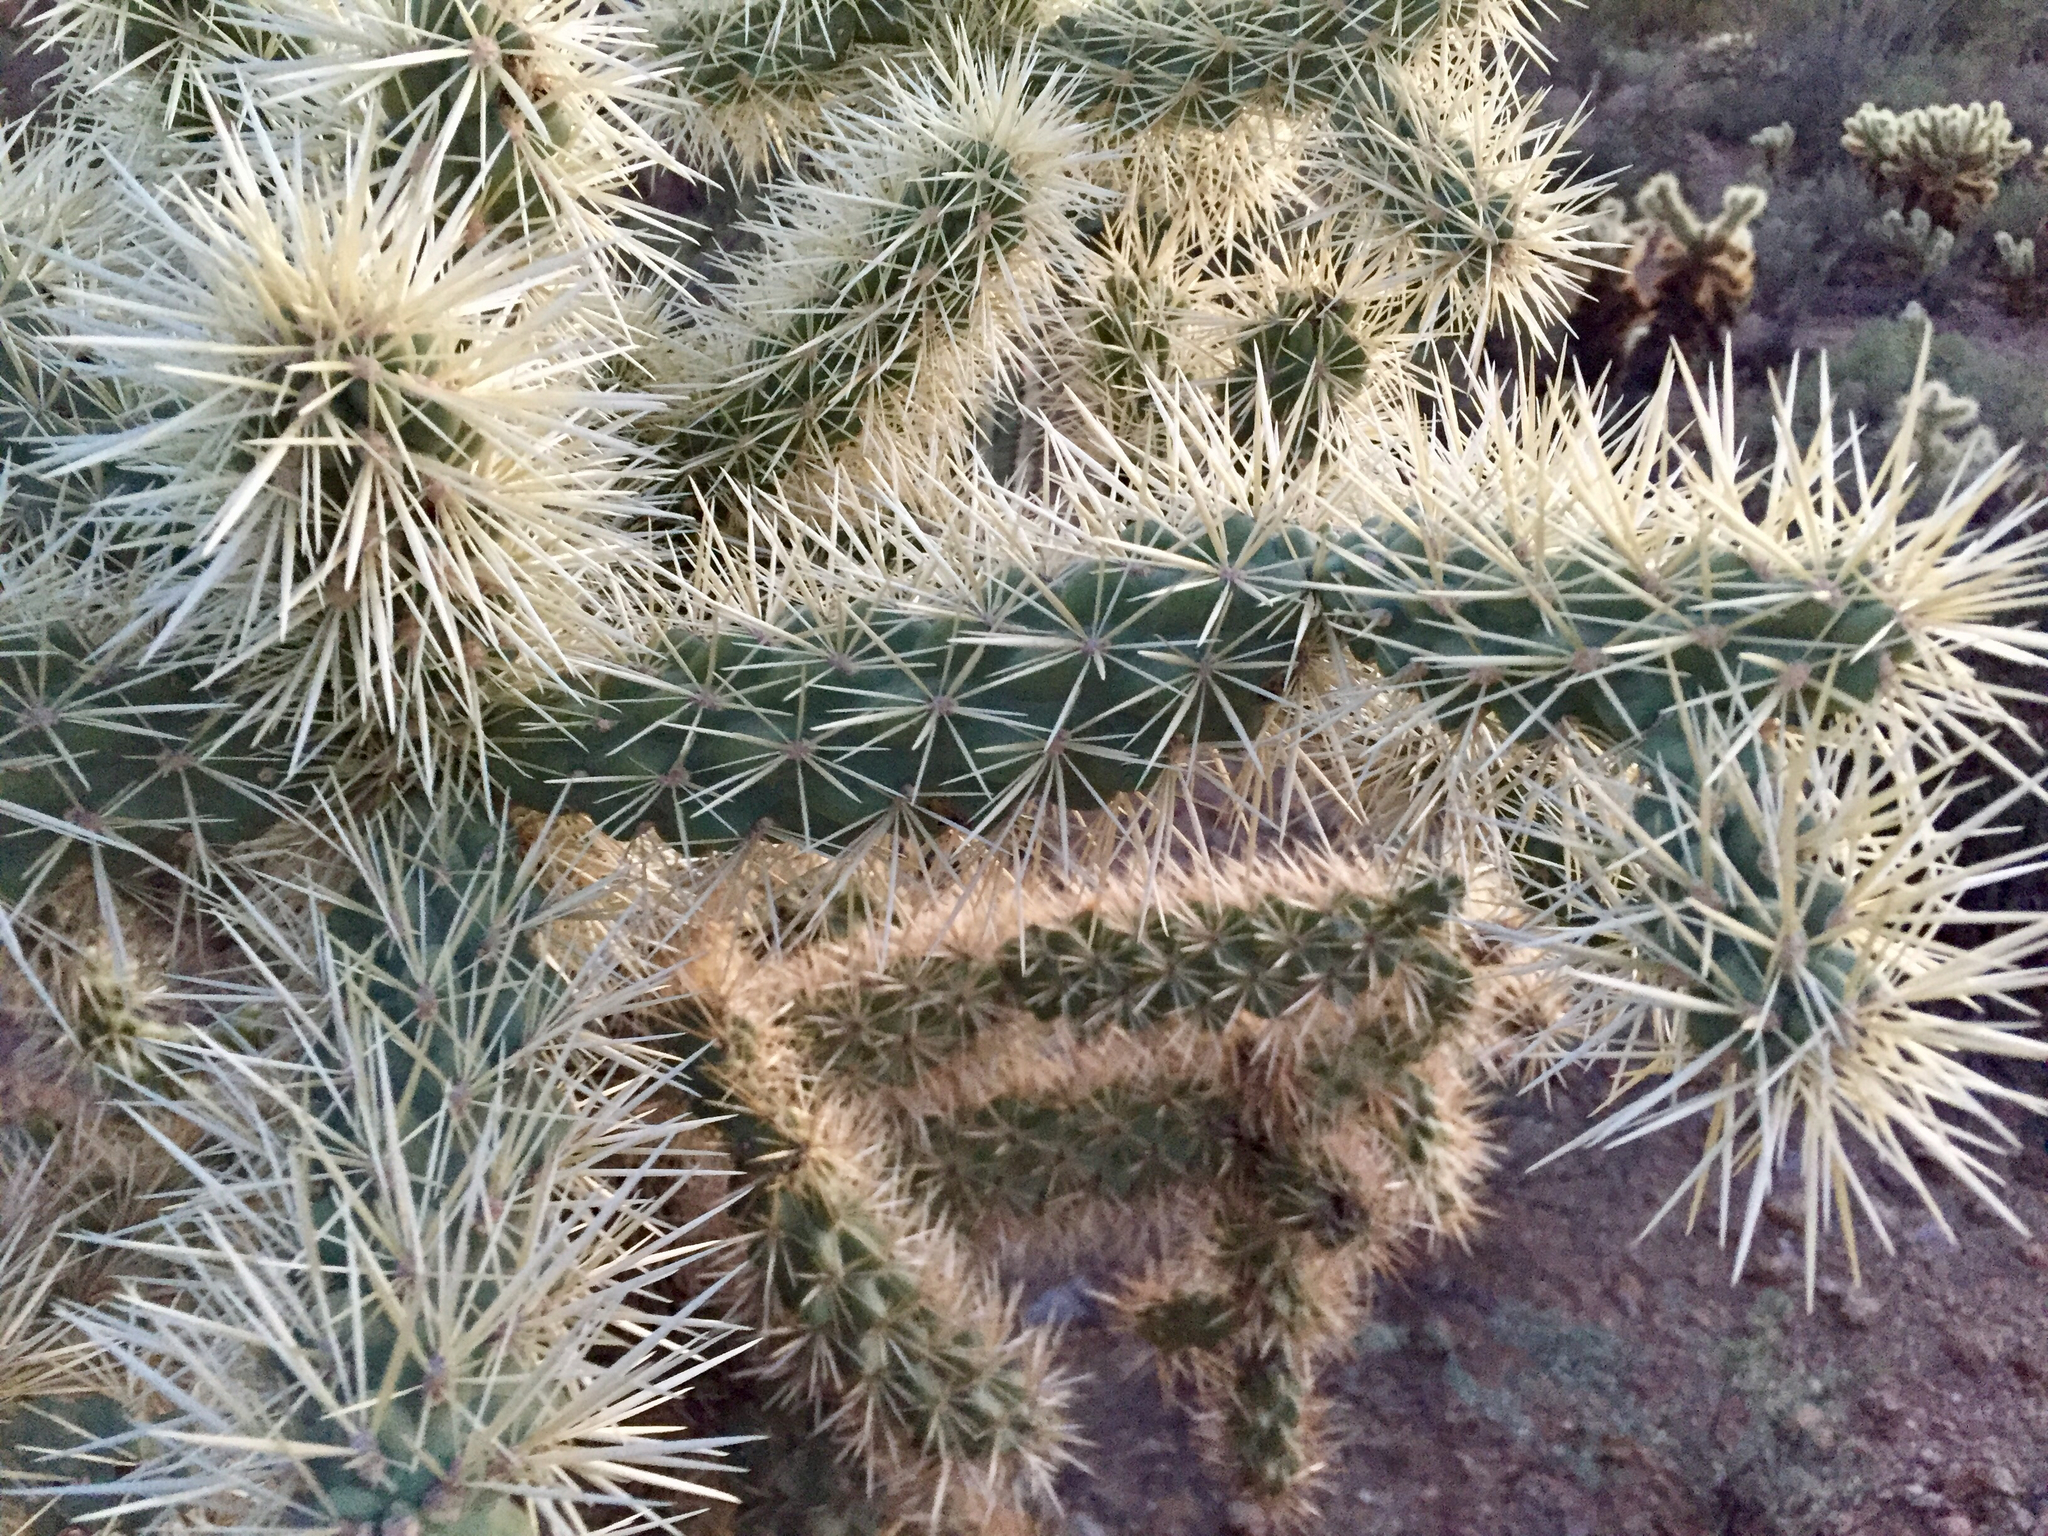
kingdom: Plantae
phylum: Tracheophyta
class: Magnoliopsida
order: Caryophyllales
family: Cactaceae
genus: Cylindropuntia
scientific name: Cylindropuntia fulgida
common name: Jumping cholla
